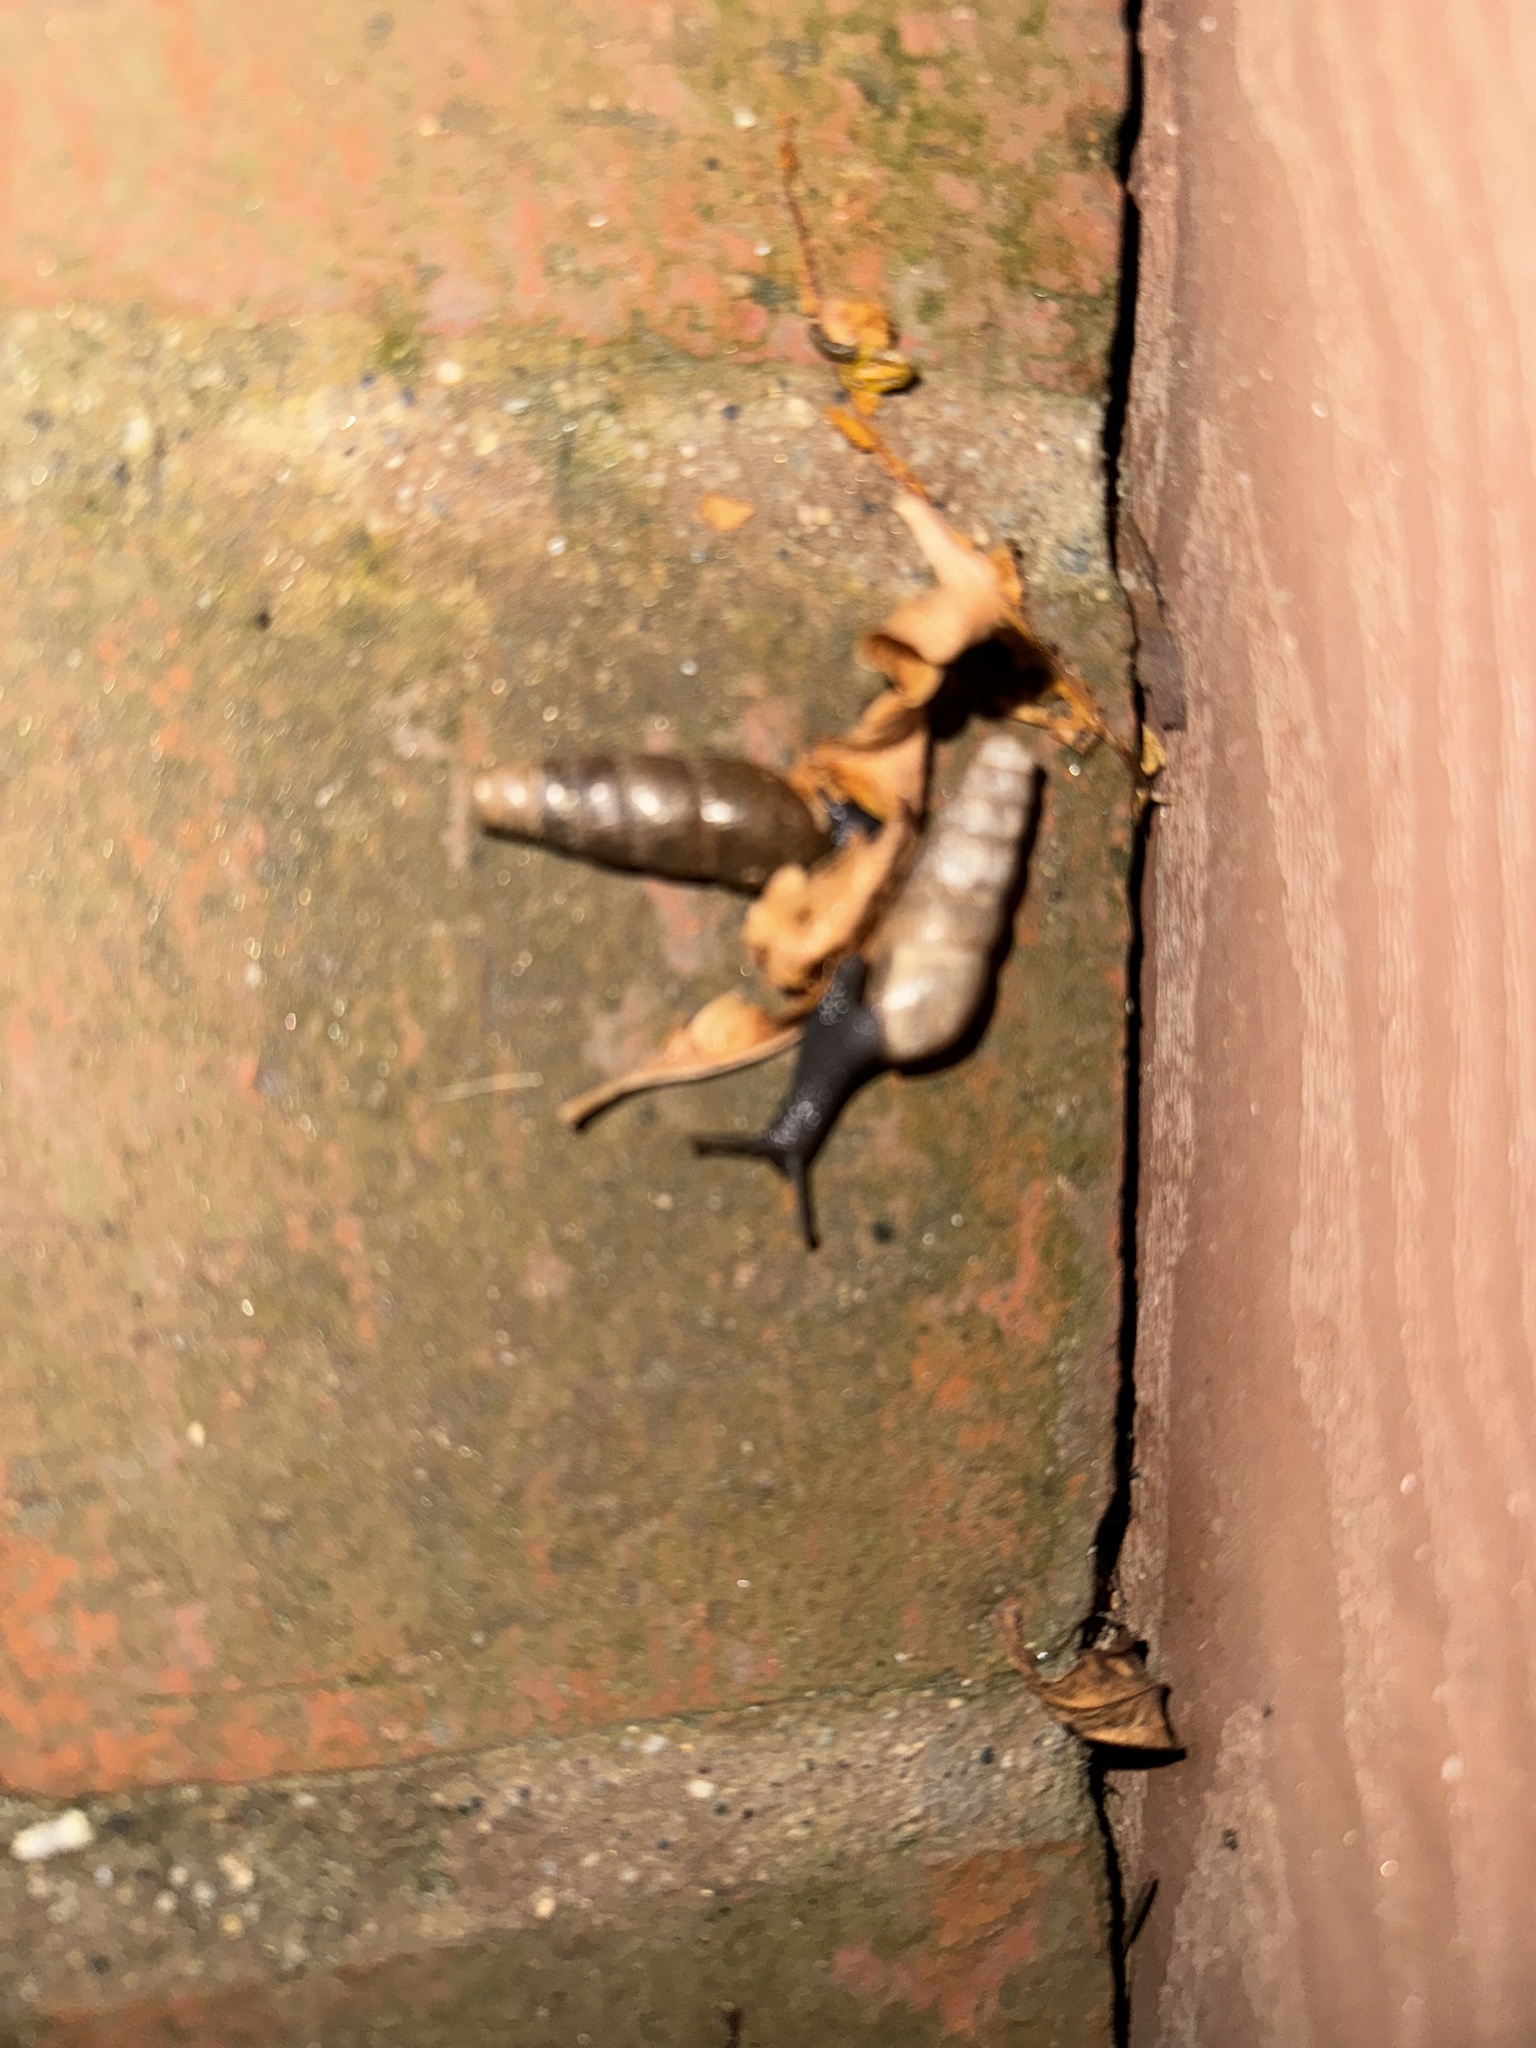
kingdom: Animalia
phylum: Mollusca
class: Gastropoda
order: Stylommatophora
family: Achatinidae
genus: Rumina
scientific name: Rumina decollata
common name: Decollate snail
